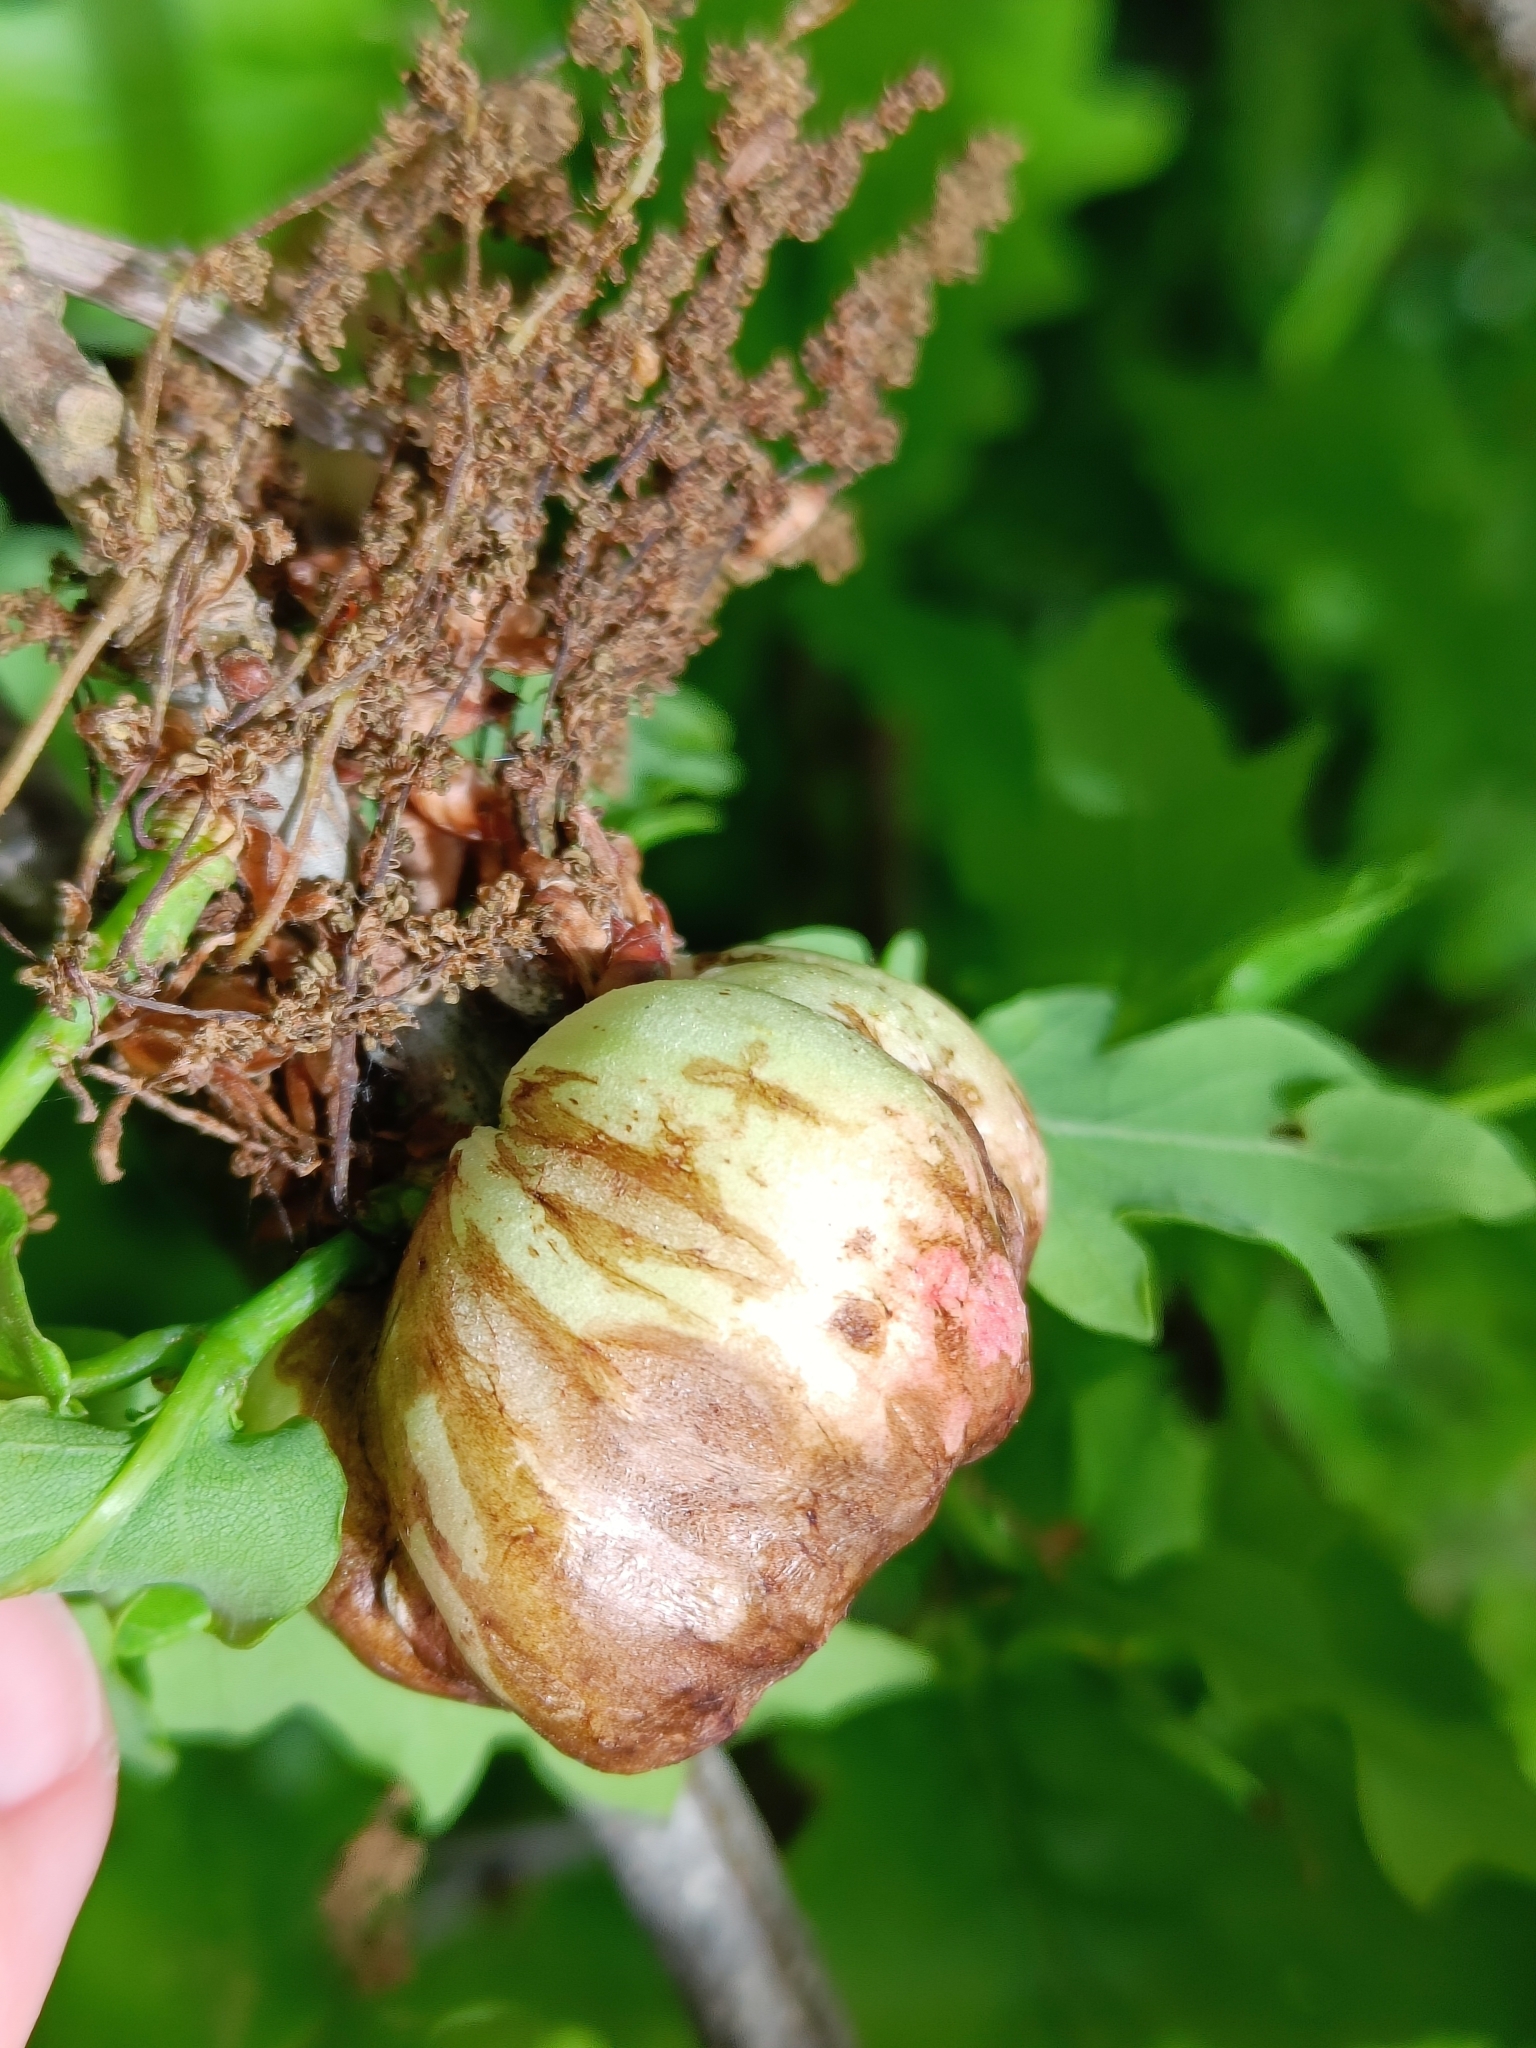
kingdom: Animalia
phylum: Arthropoda
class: Insecta
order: Hymenoptera
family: Cynipidae
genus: Biorhiza
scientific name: Biorhiza pallida
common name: Oak apple
